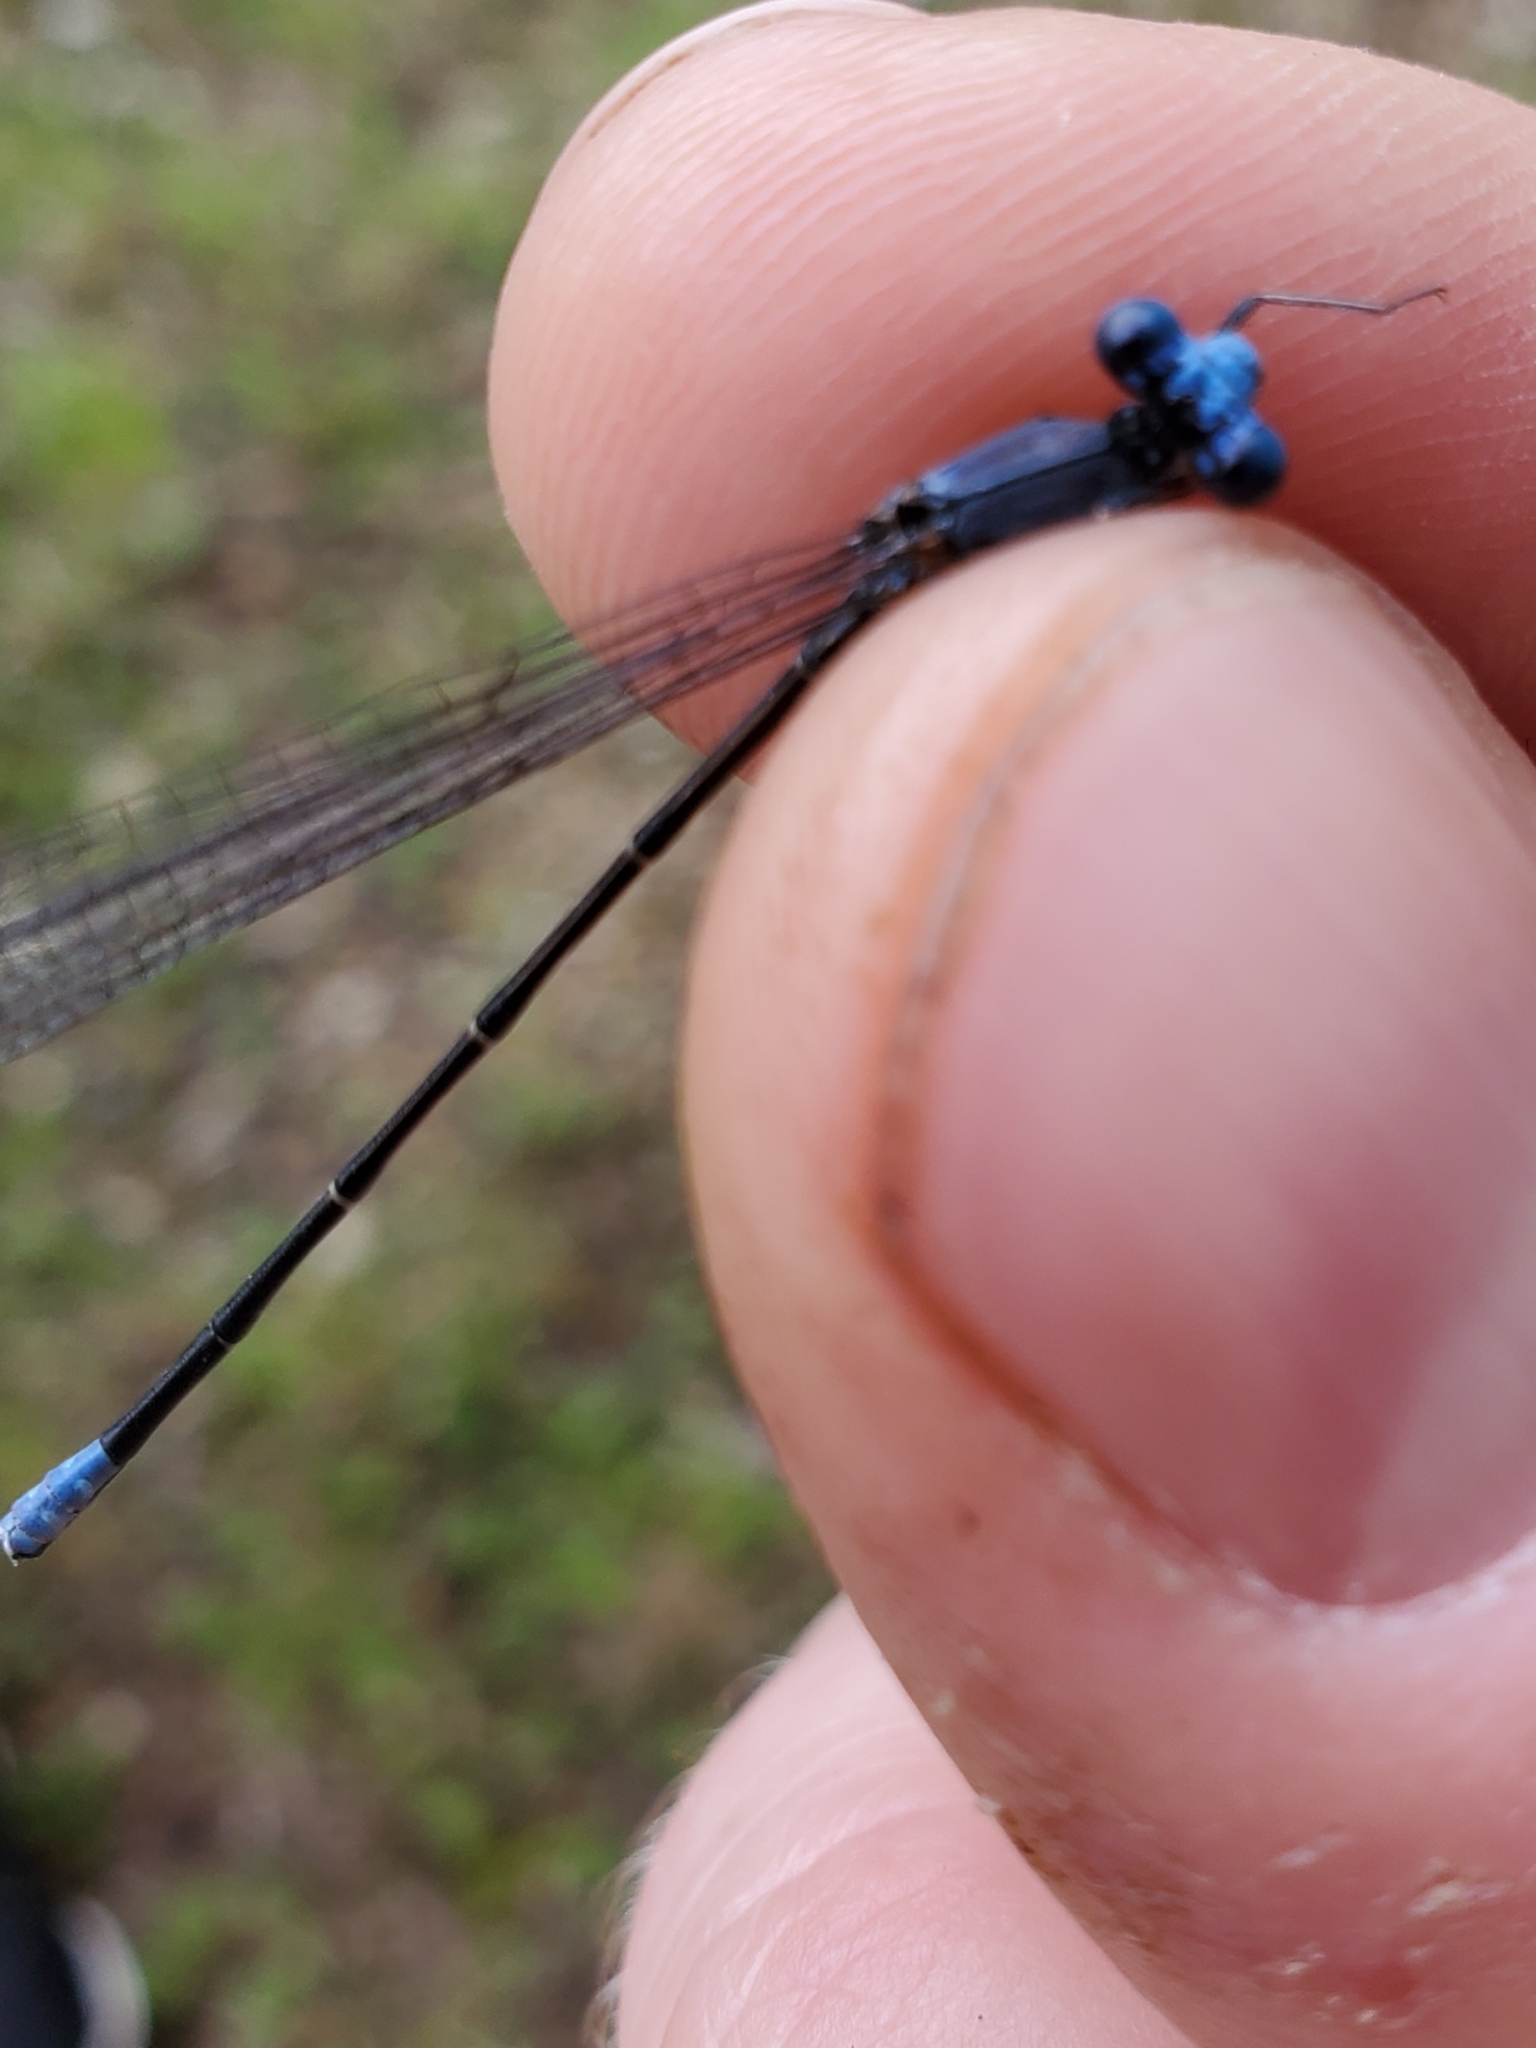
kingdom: Animalia
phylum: Arthropoda
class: Insecta
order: Odonata
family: Coenagrionidae
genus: Argia
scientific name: Argia apicalis
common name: Blue-fronted dancer
